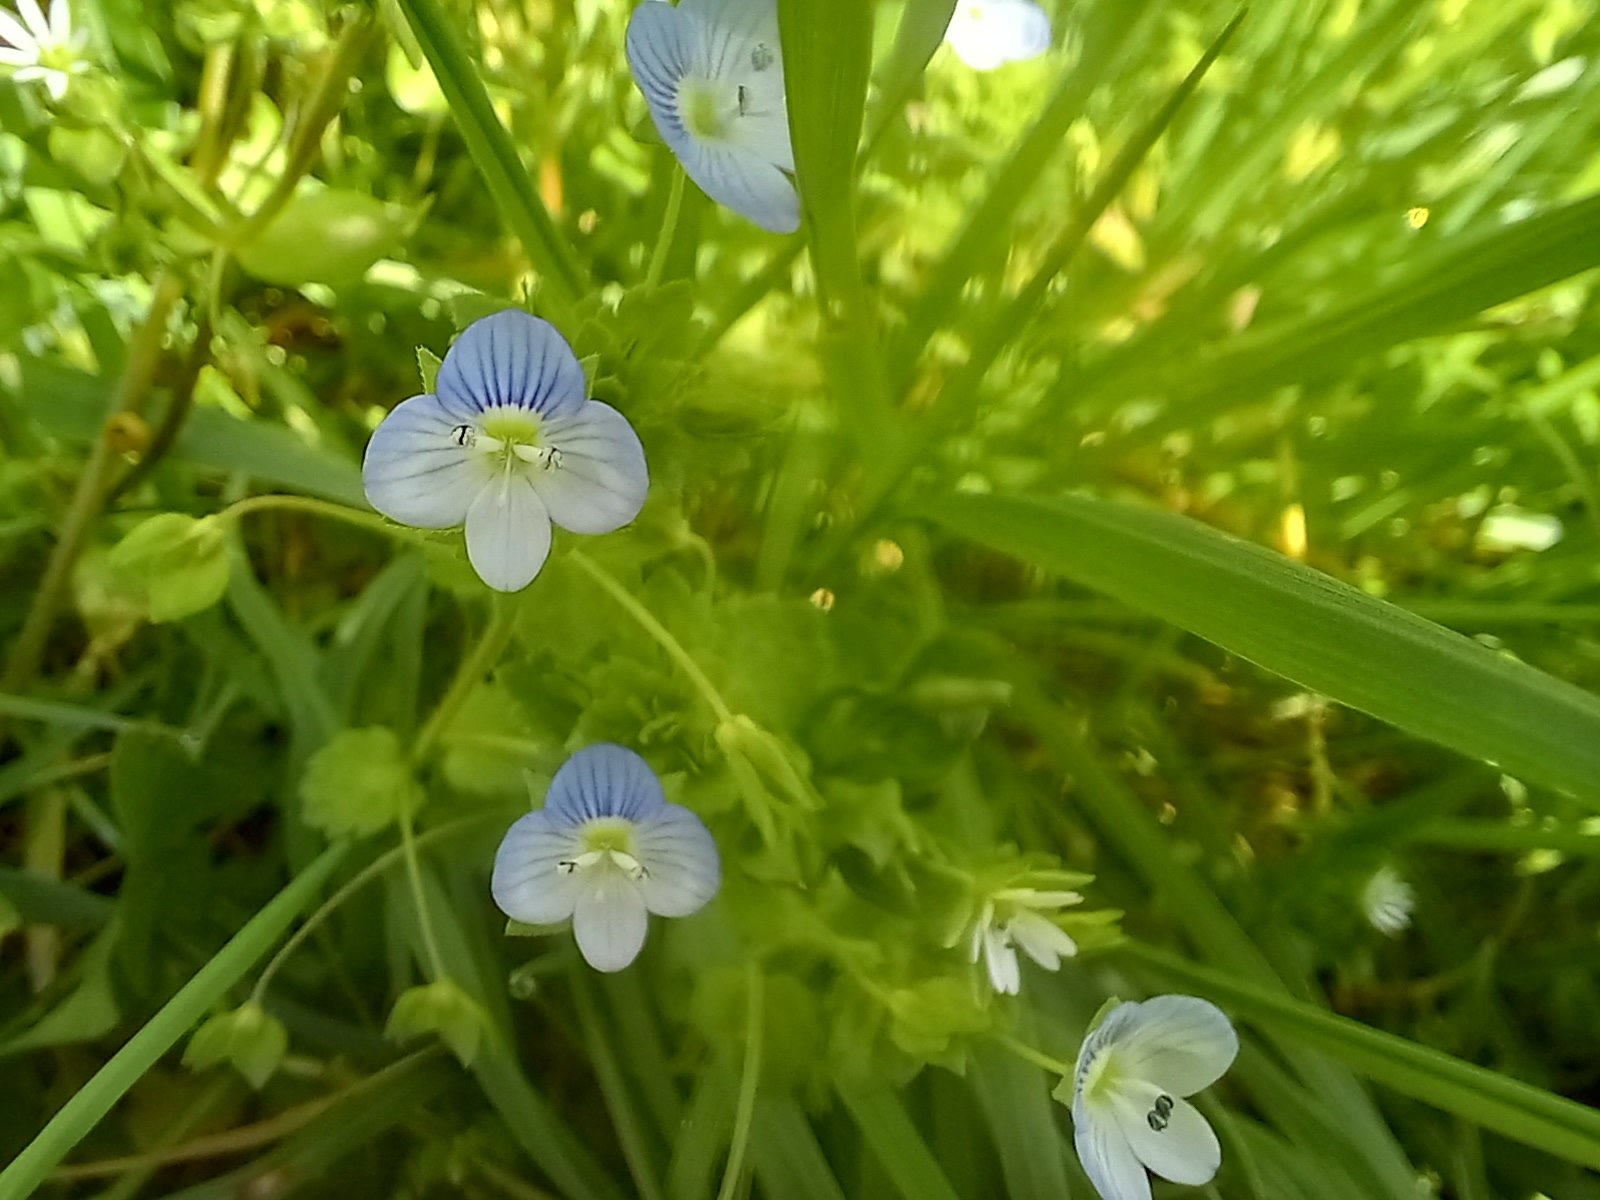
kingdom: Plantae
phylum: Tracheophyta
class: Magnoliopsida
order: Lamiales
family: Plantaginaceae
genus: Veronica
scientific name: Veronica persica
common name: Common field-speedwell
